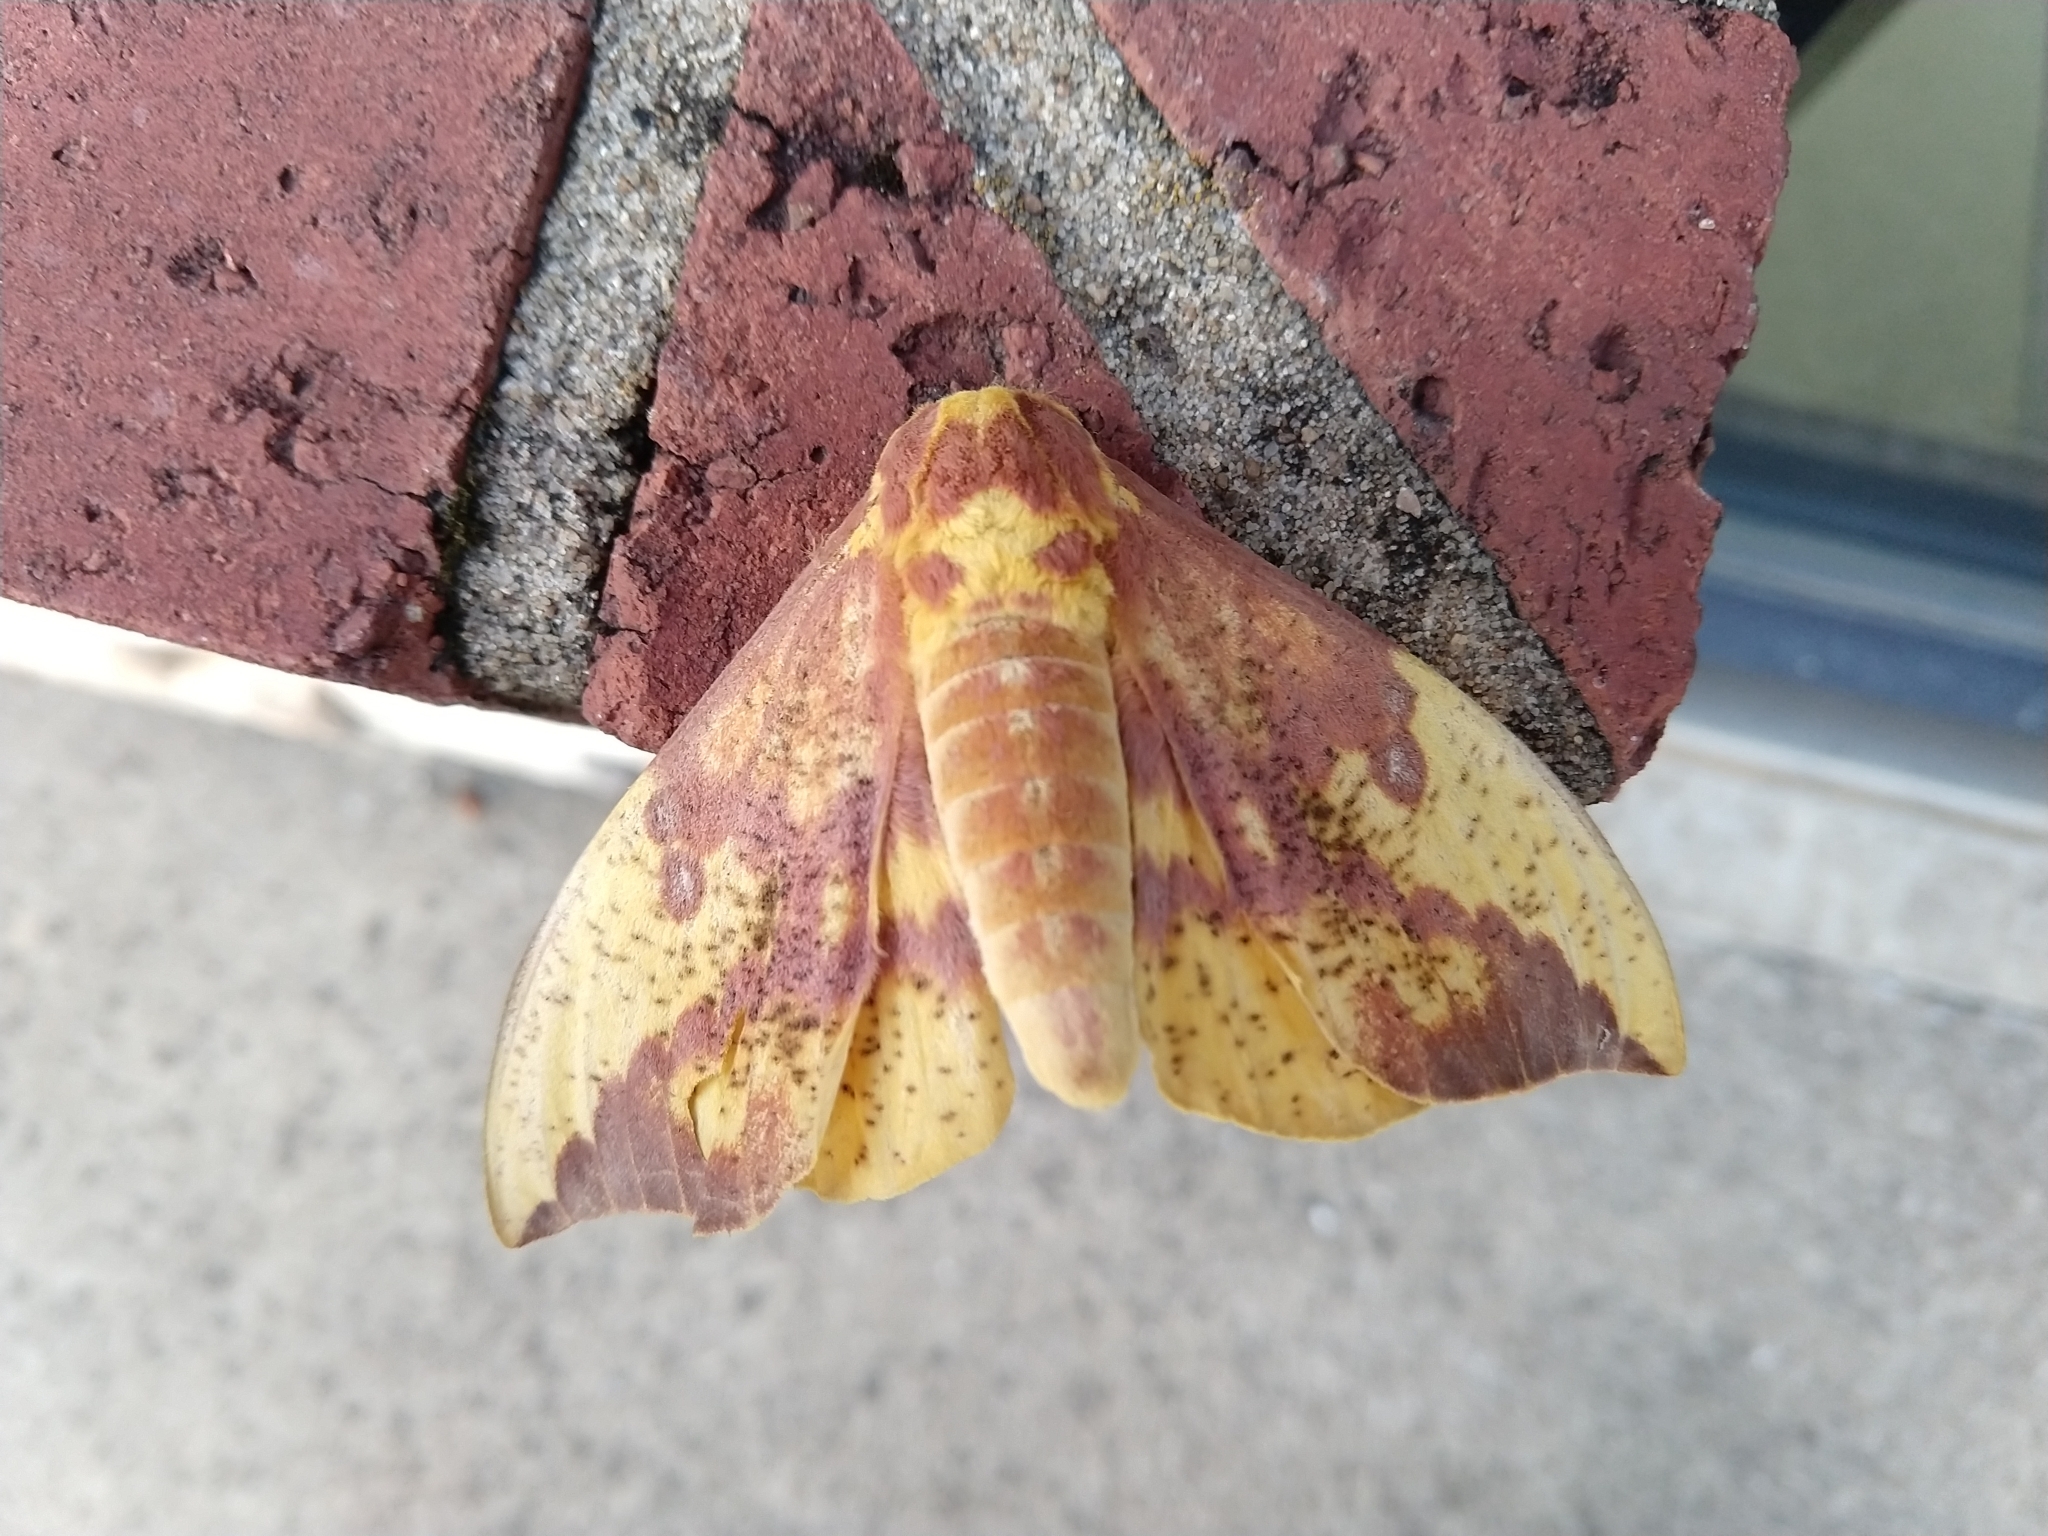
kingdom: Animalia
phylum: Arthropoda
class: Insecta
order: Lepidoptera
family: Saturniidae
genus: Eacles
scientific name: Eacles imperialis
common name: Imperial moth
